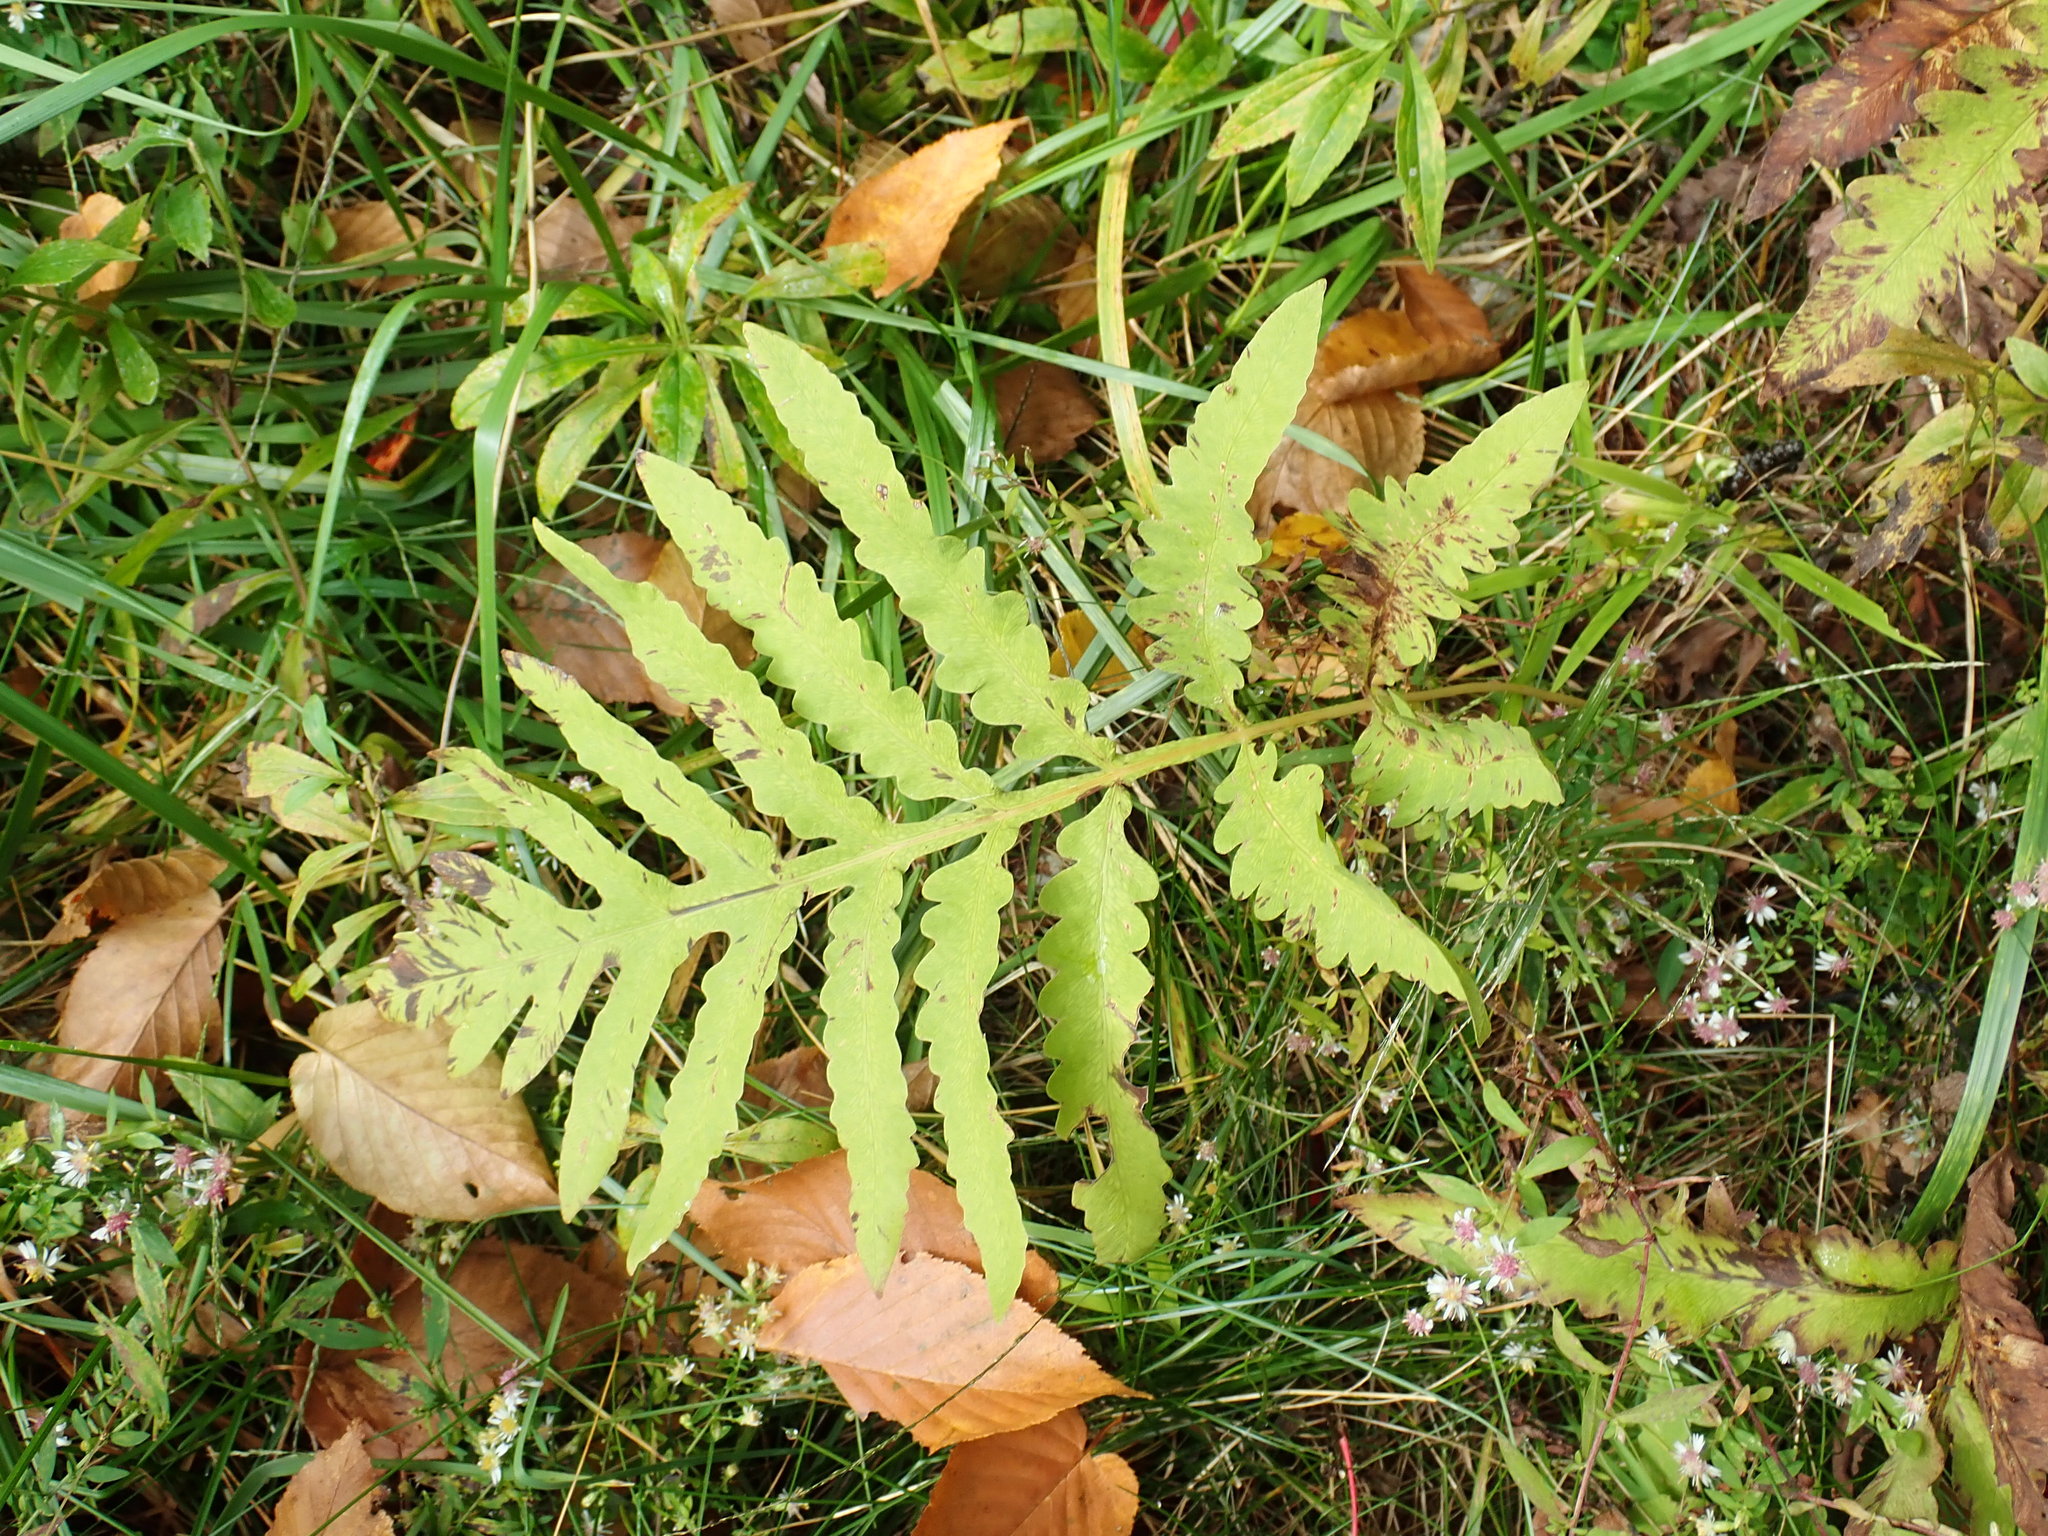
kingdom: Plantae
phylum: Tracheophyta
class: Polypodiopsida
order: Polypodiales
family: Onocleaceae
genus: Onoclea
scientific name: Onoclea sensibilis
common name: Sensitive fern
